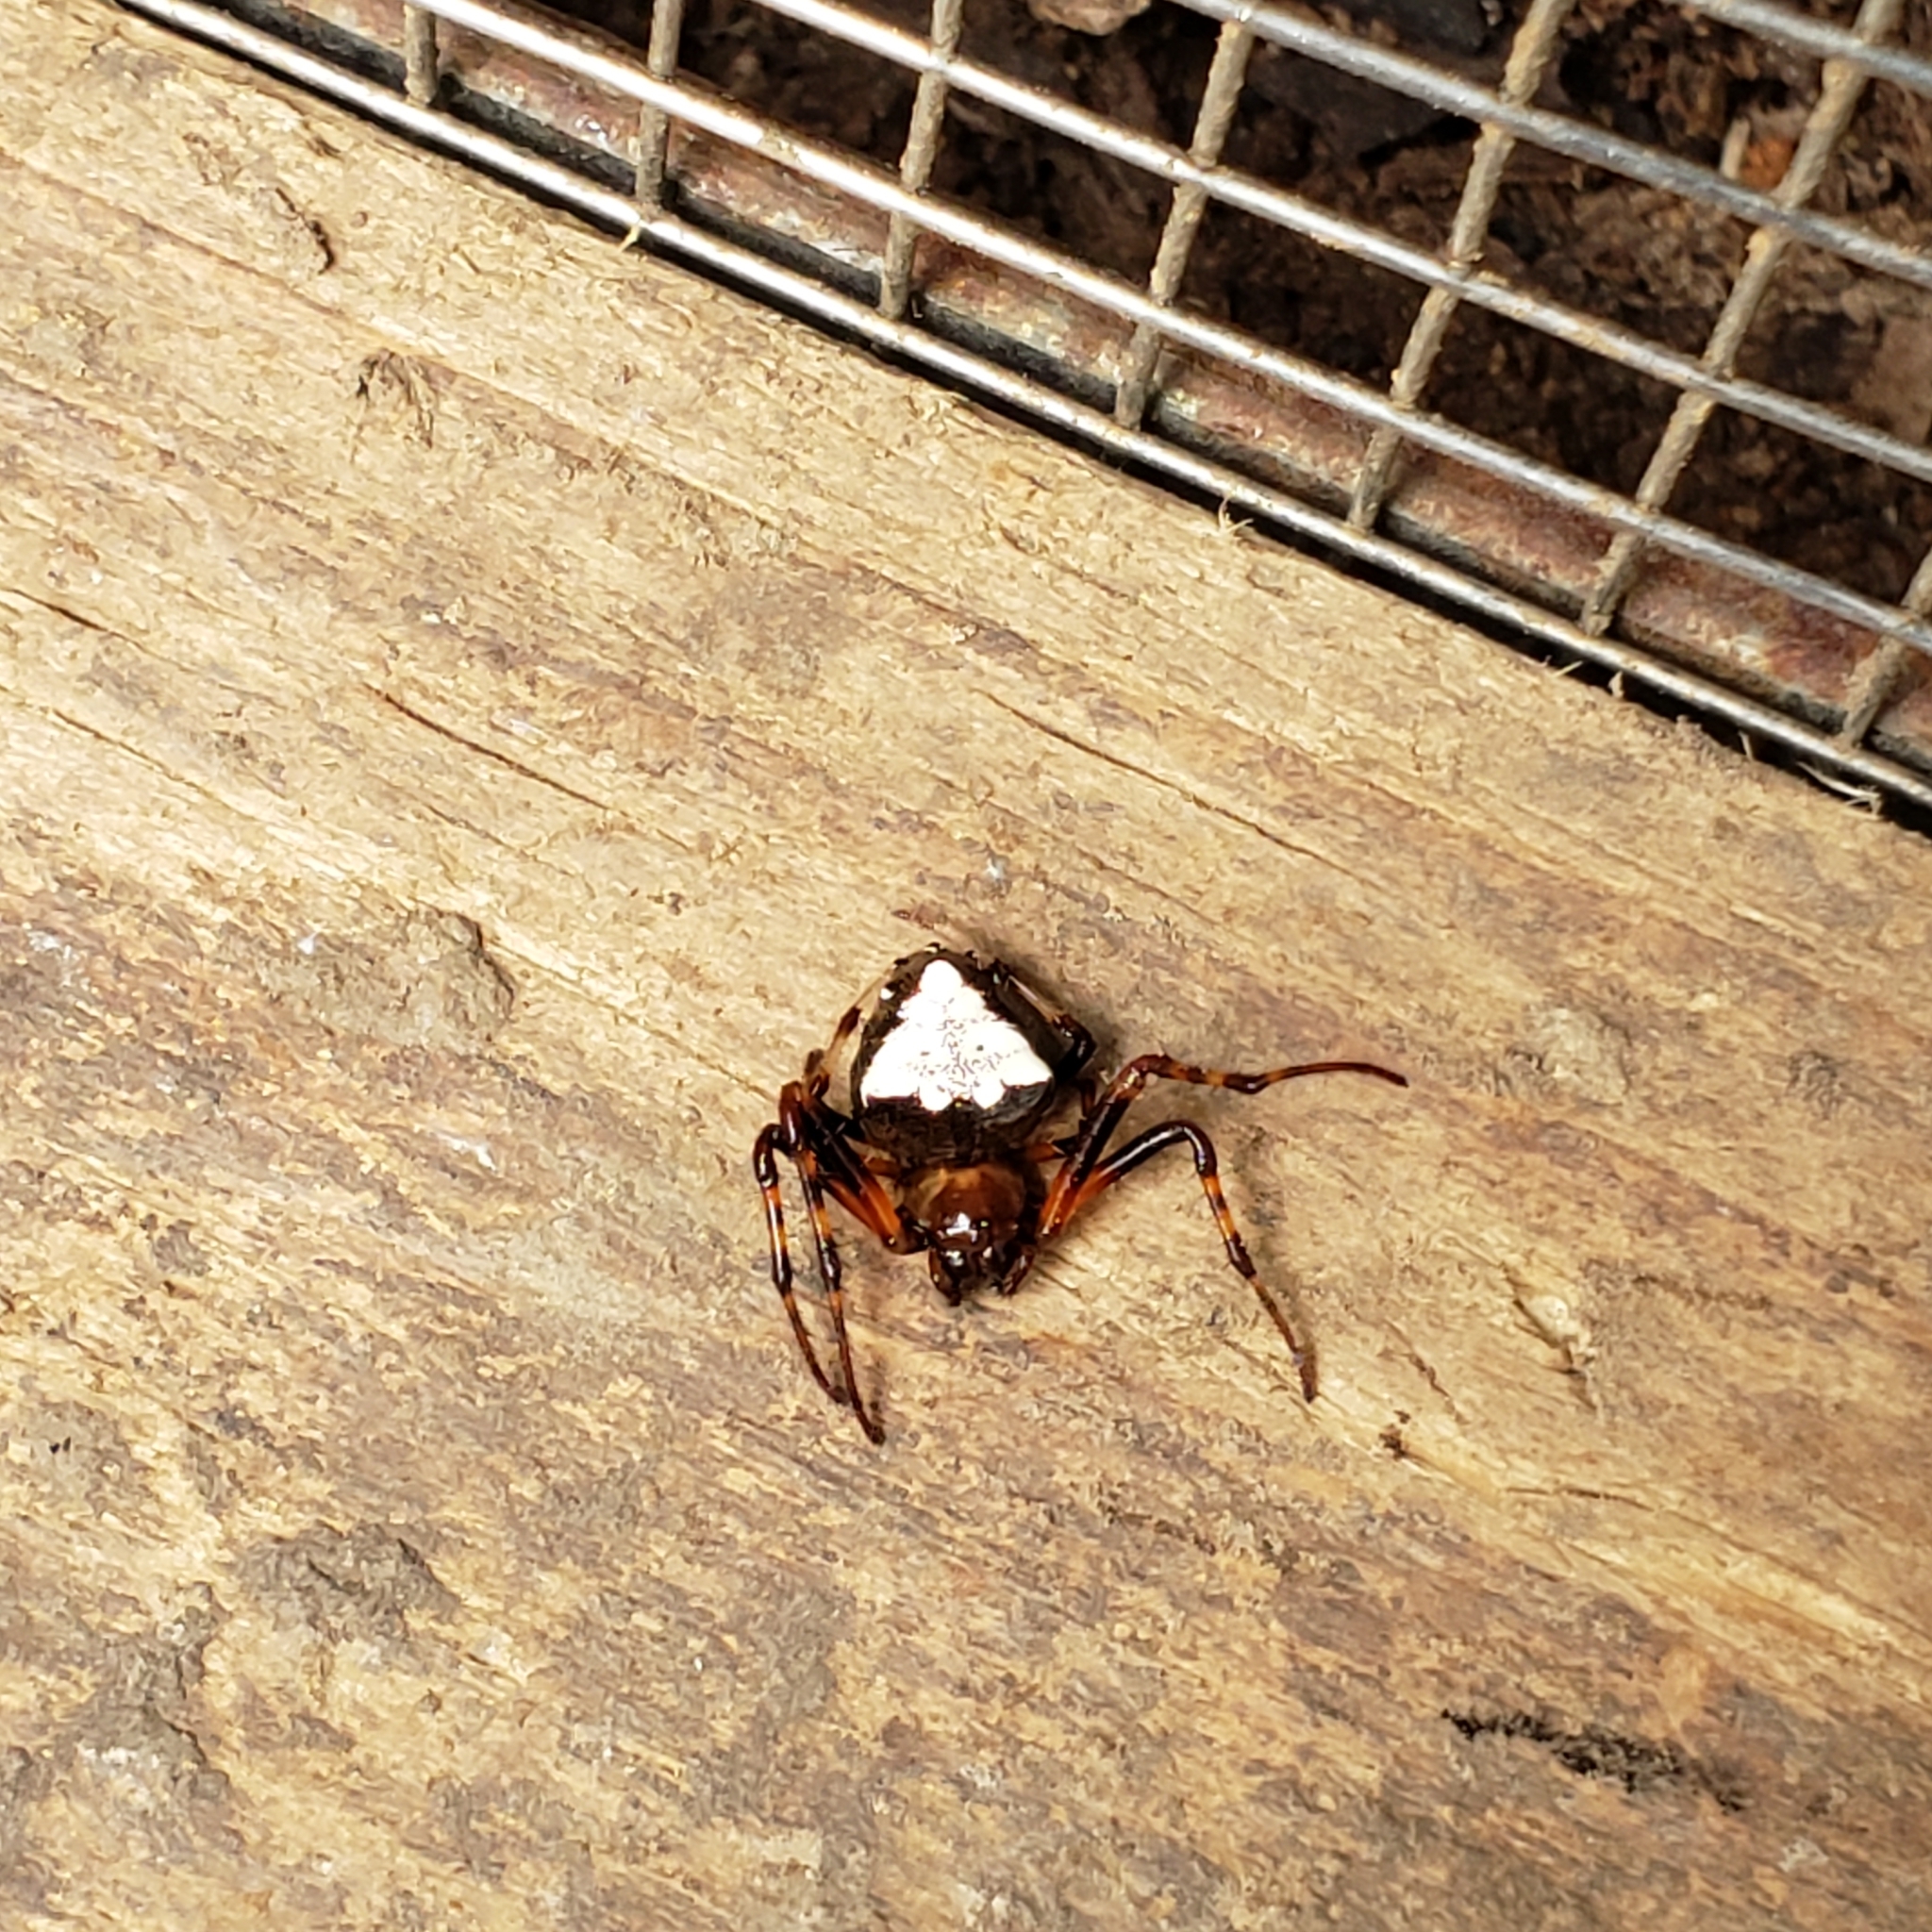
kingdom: Animalia
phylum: Arthropoda
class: Arachnida
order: Araneae
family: Araneidae
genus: Verrucosa
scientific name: Verrucosa arenata
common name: Orb weavers
